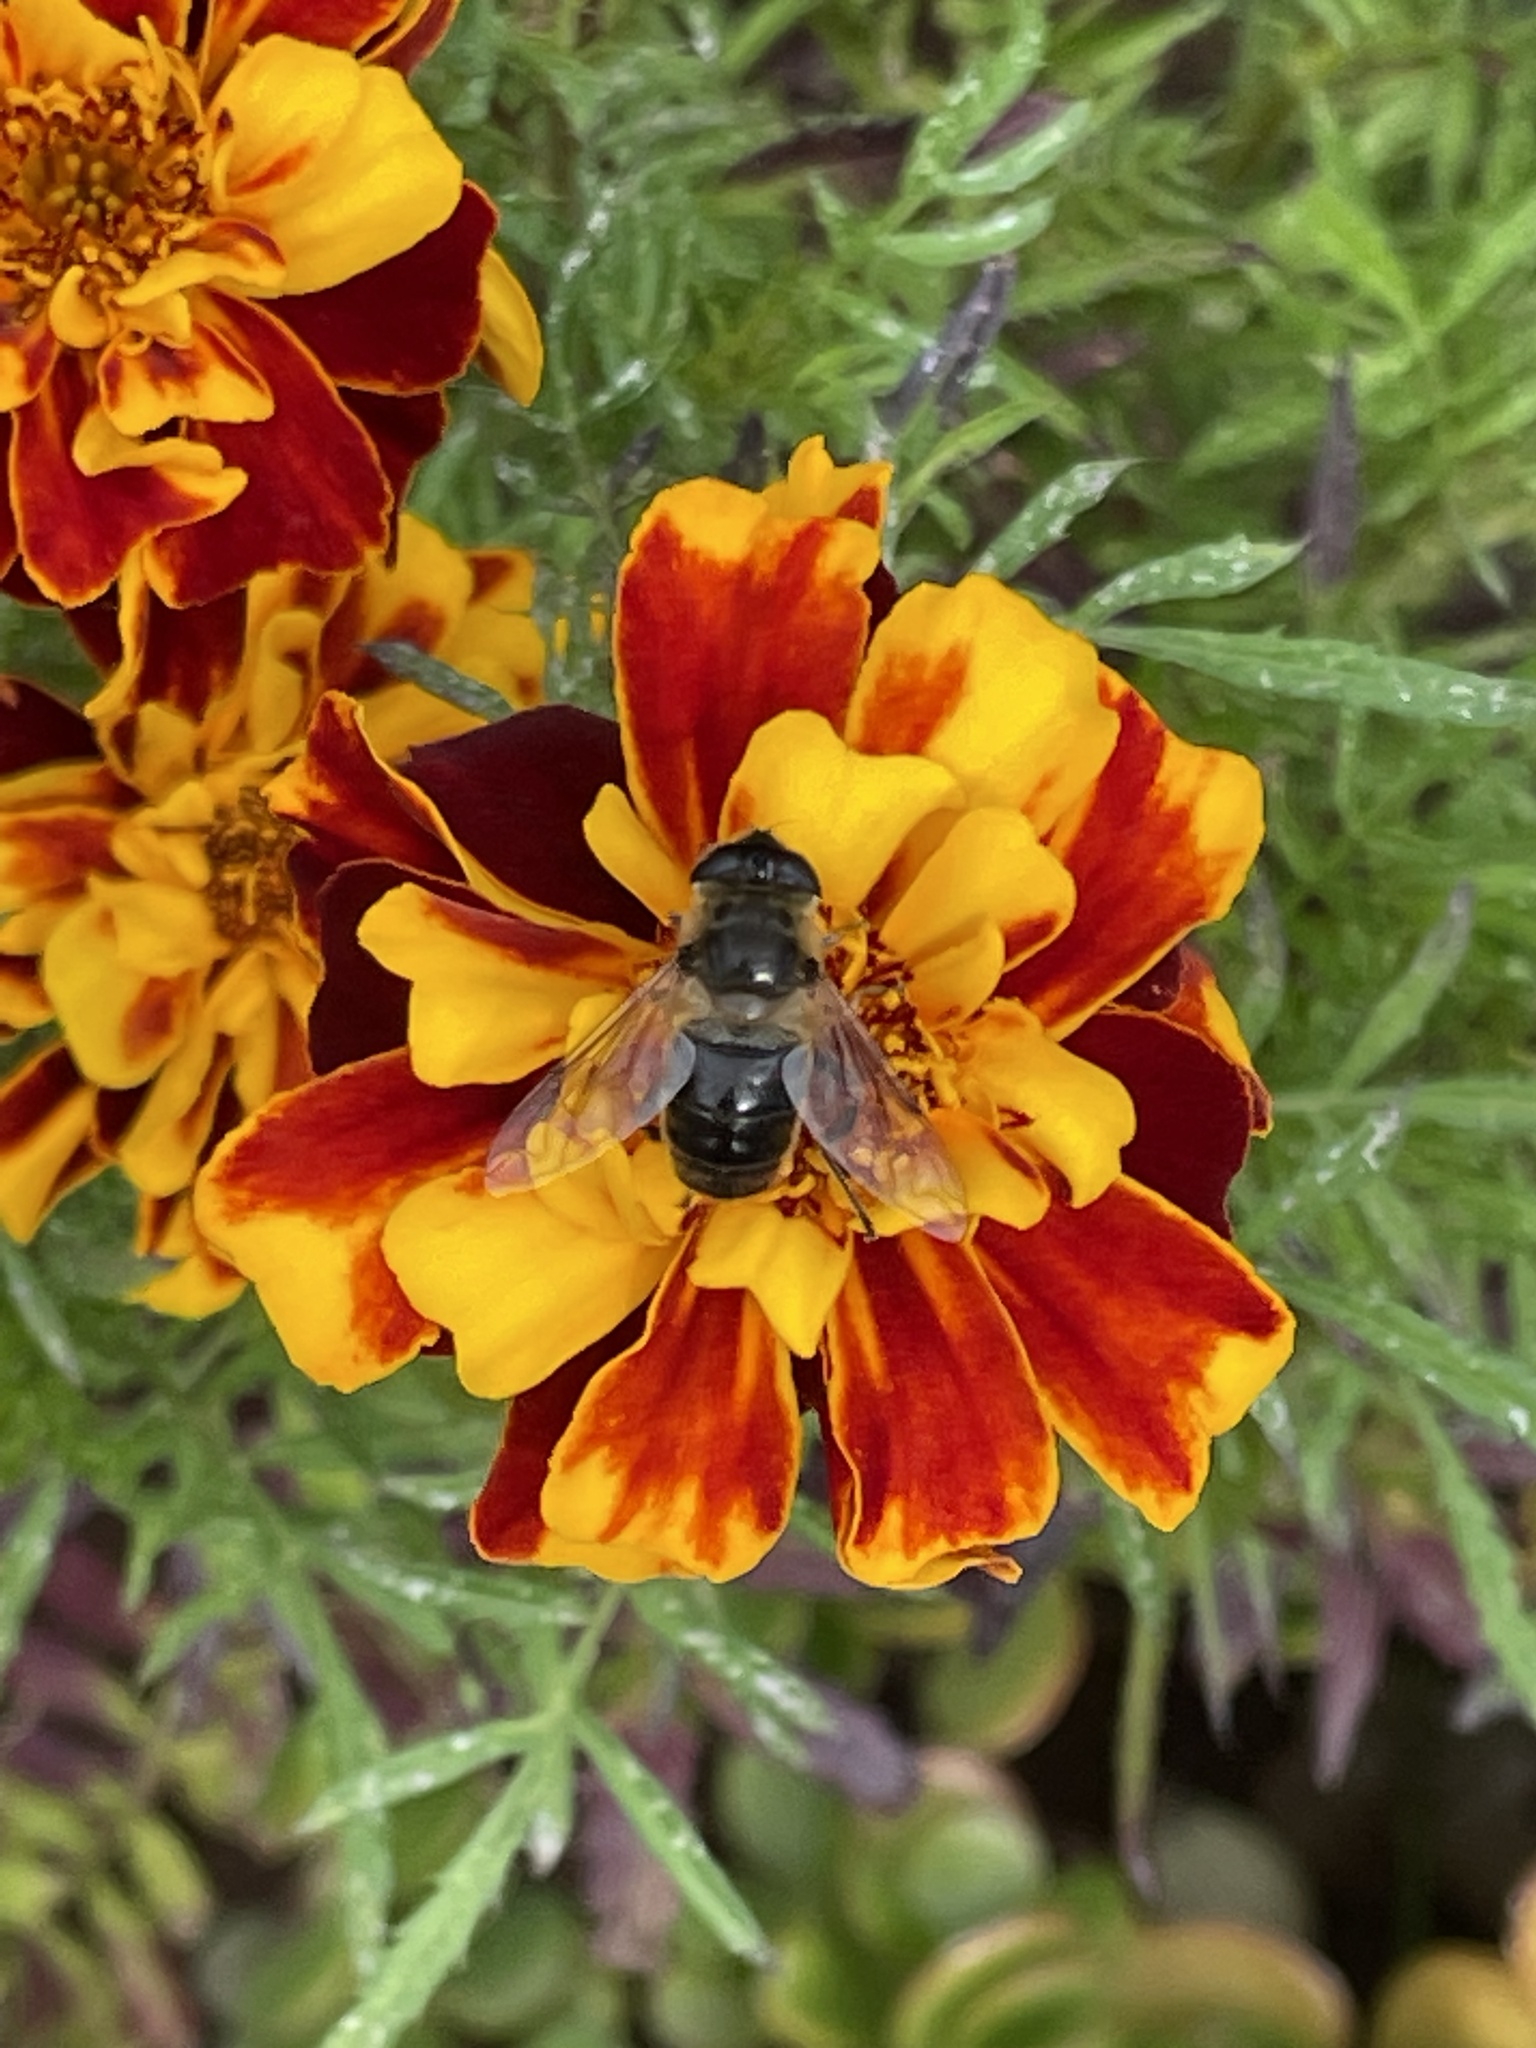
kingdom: Animalia
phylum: Arthropoda
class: Insecta
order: Diptera
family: Syrphidae
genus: Eristalis
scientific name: Eristalis tenax
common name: Drone fly
